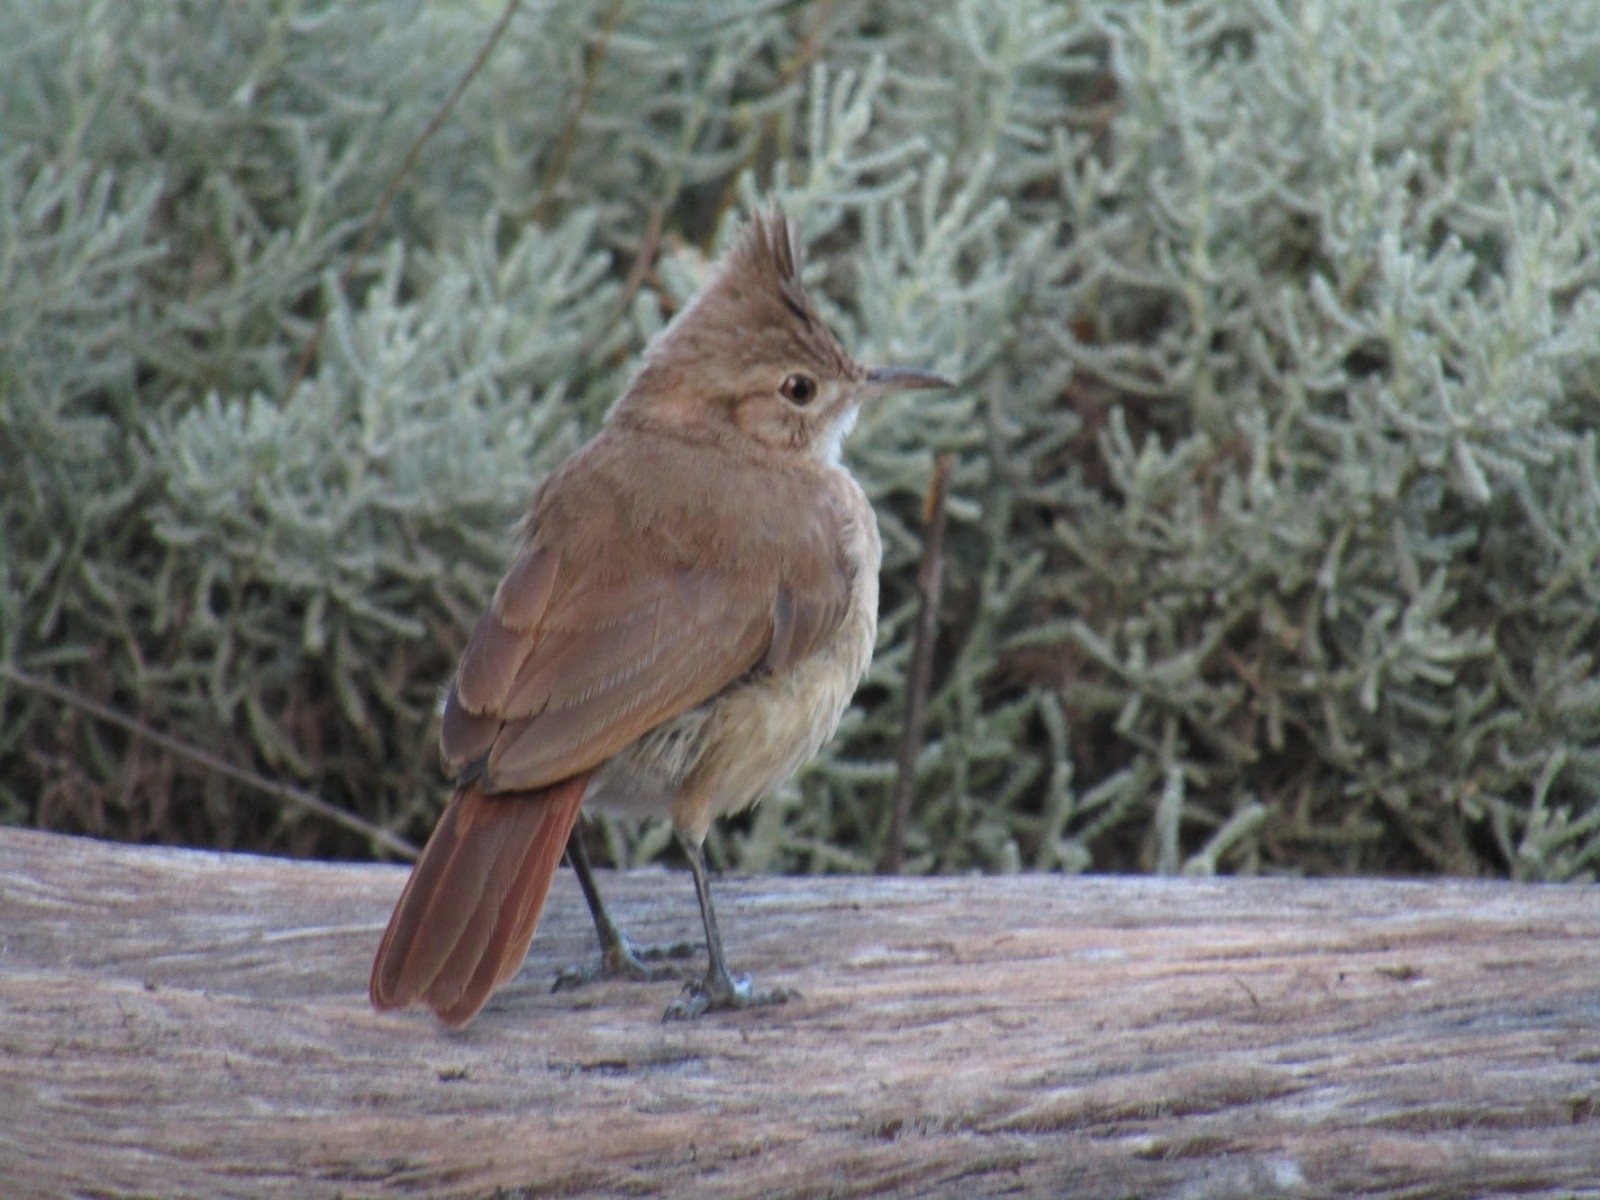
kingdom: Animalia
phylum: Chordata
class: Aves
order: Passeriformes
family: Furnariidae
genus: Furnarius
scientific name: Furnarius cristatus
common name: Crested hornero
